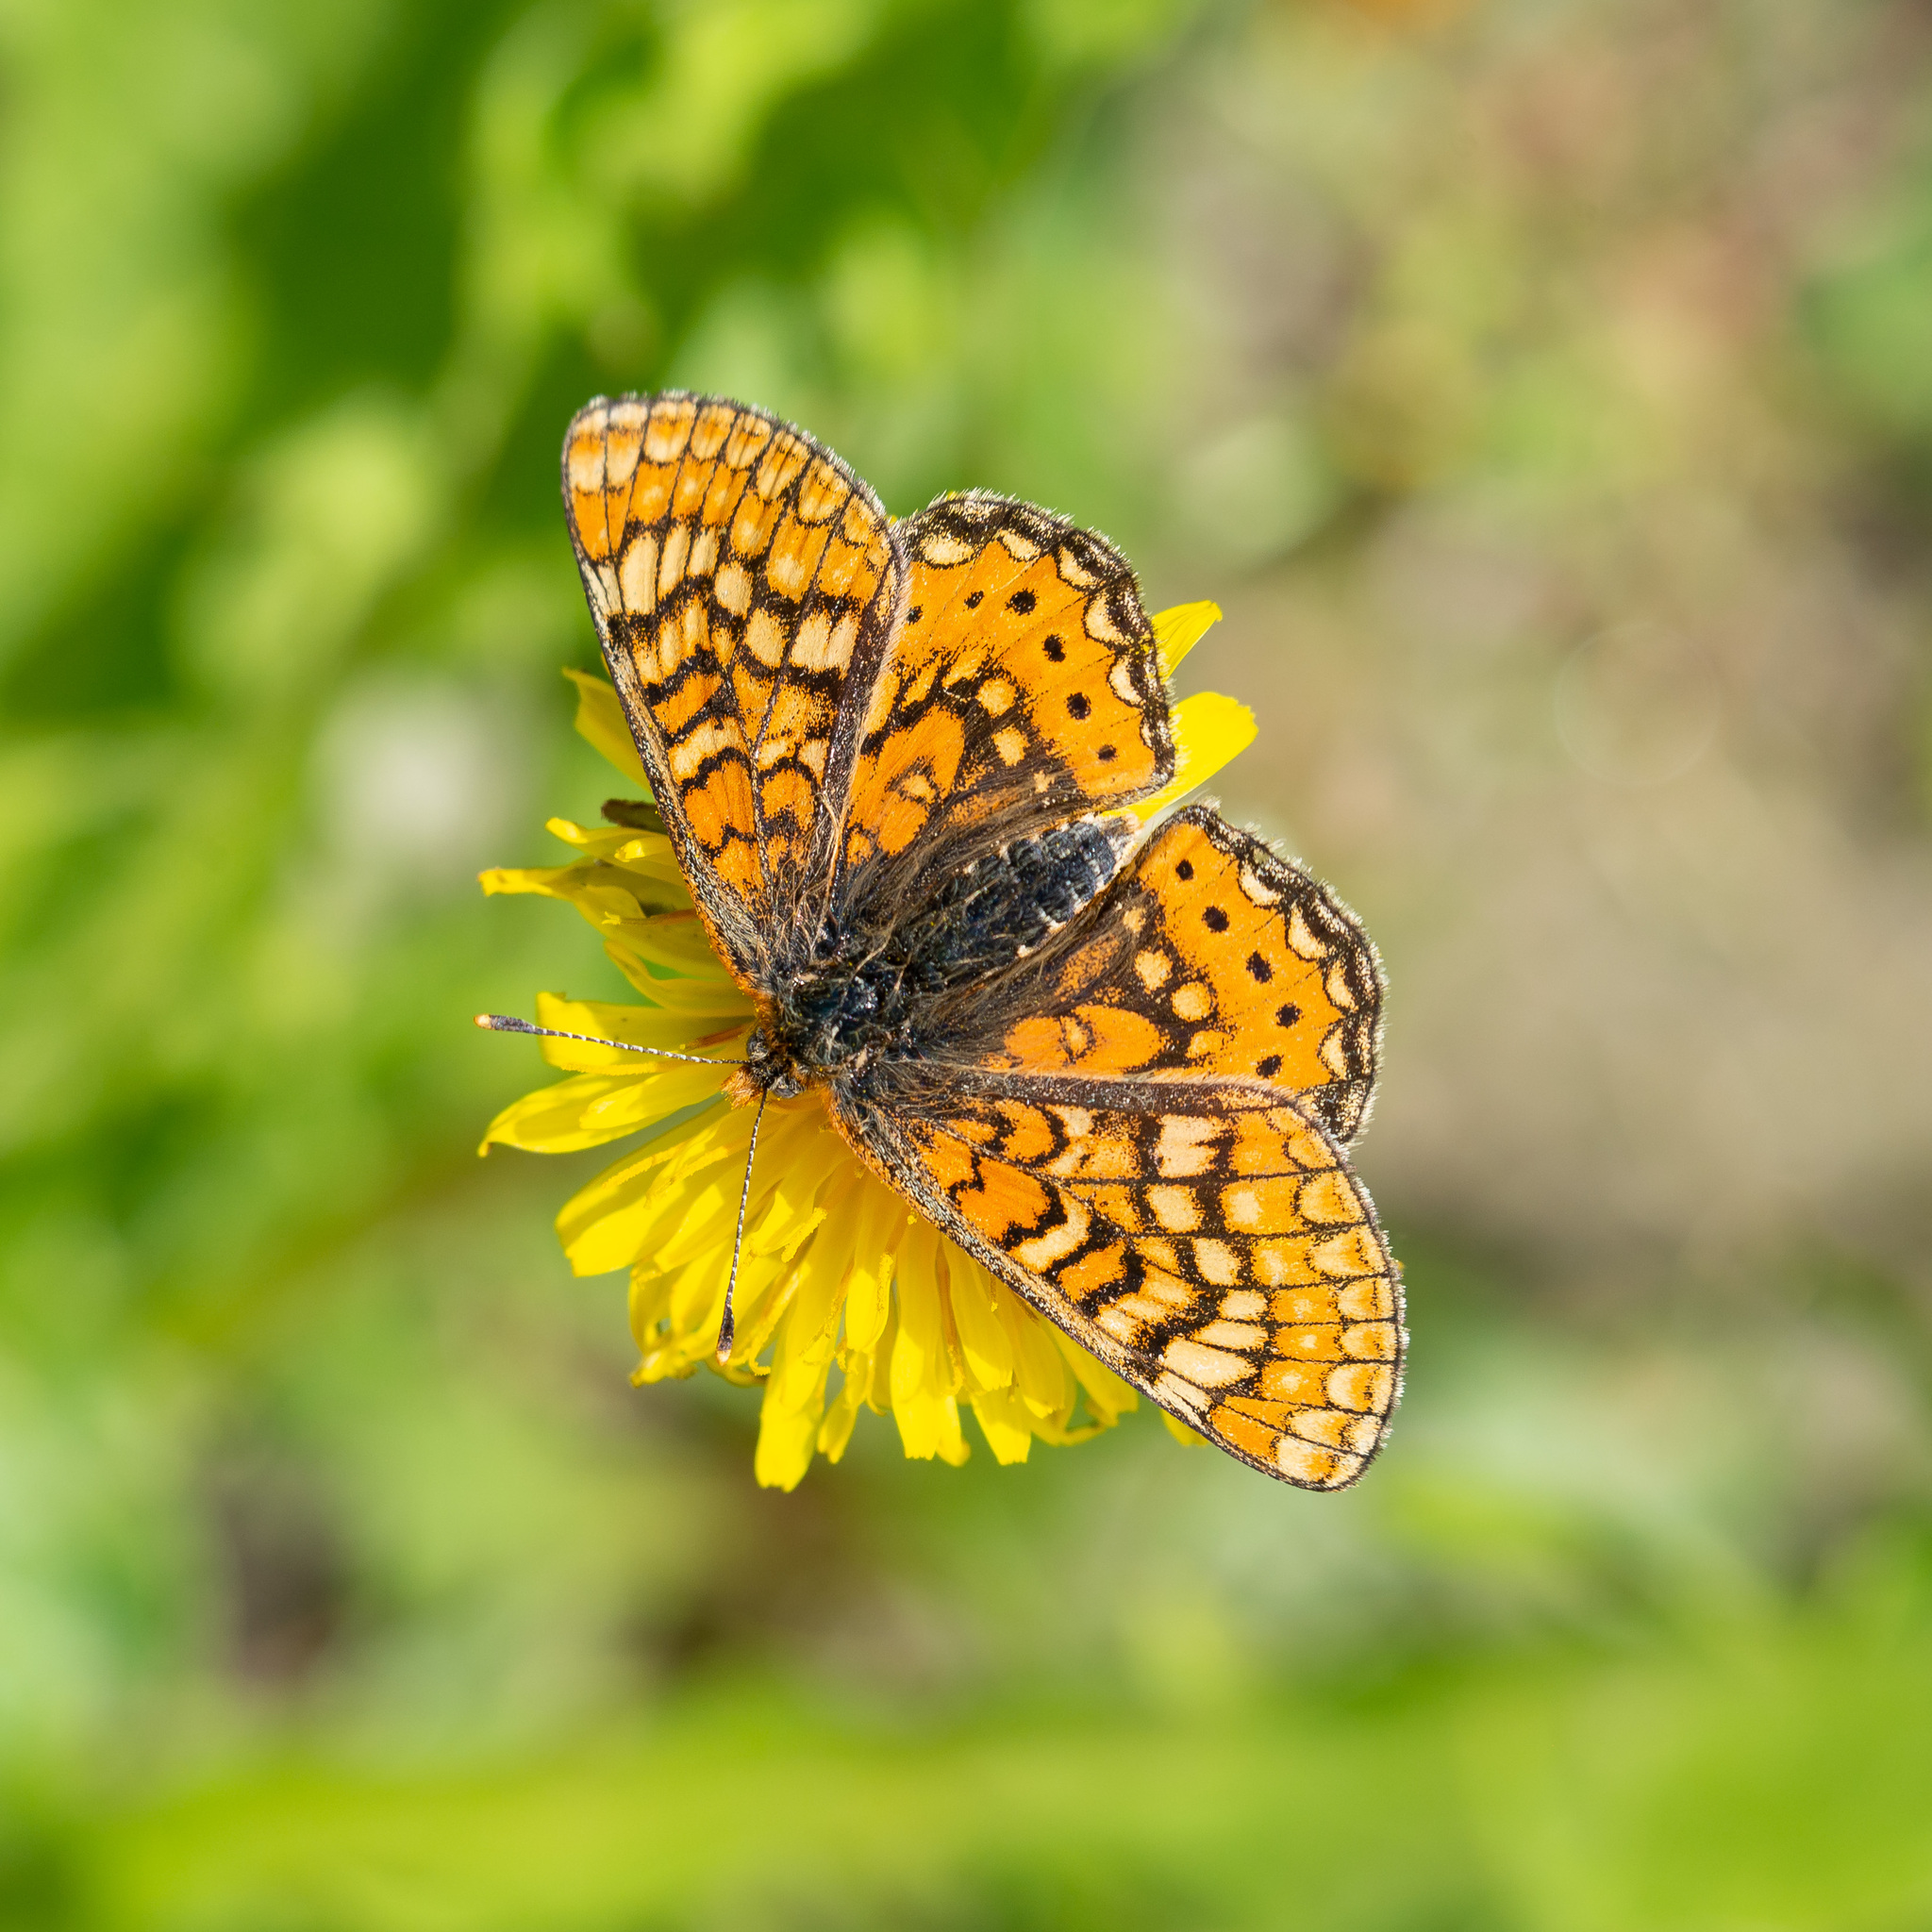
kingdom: Animalia
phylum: Arthropoda
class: Insecta
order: Lepidoptera
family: Nymphalidae
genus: Euphydryas
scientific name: Euphydryas aurinia
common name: Marsh fritillary
